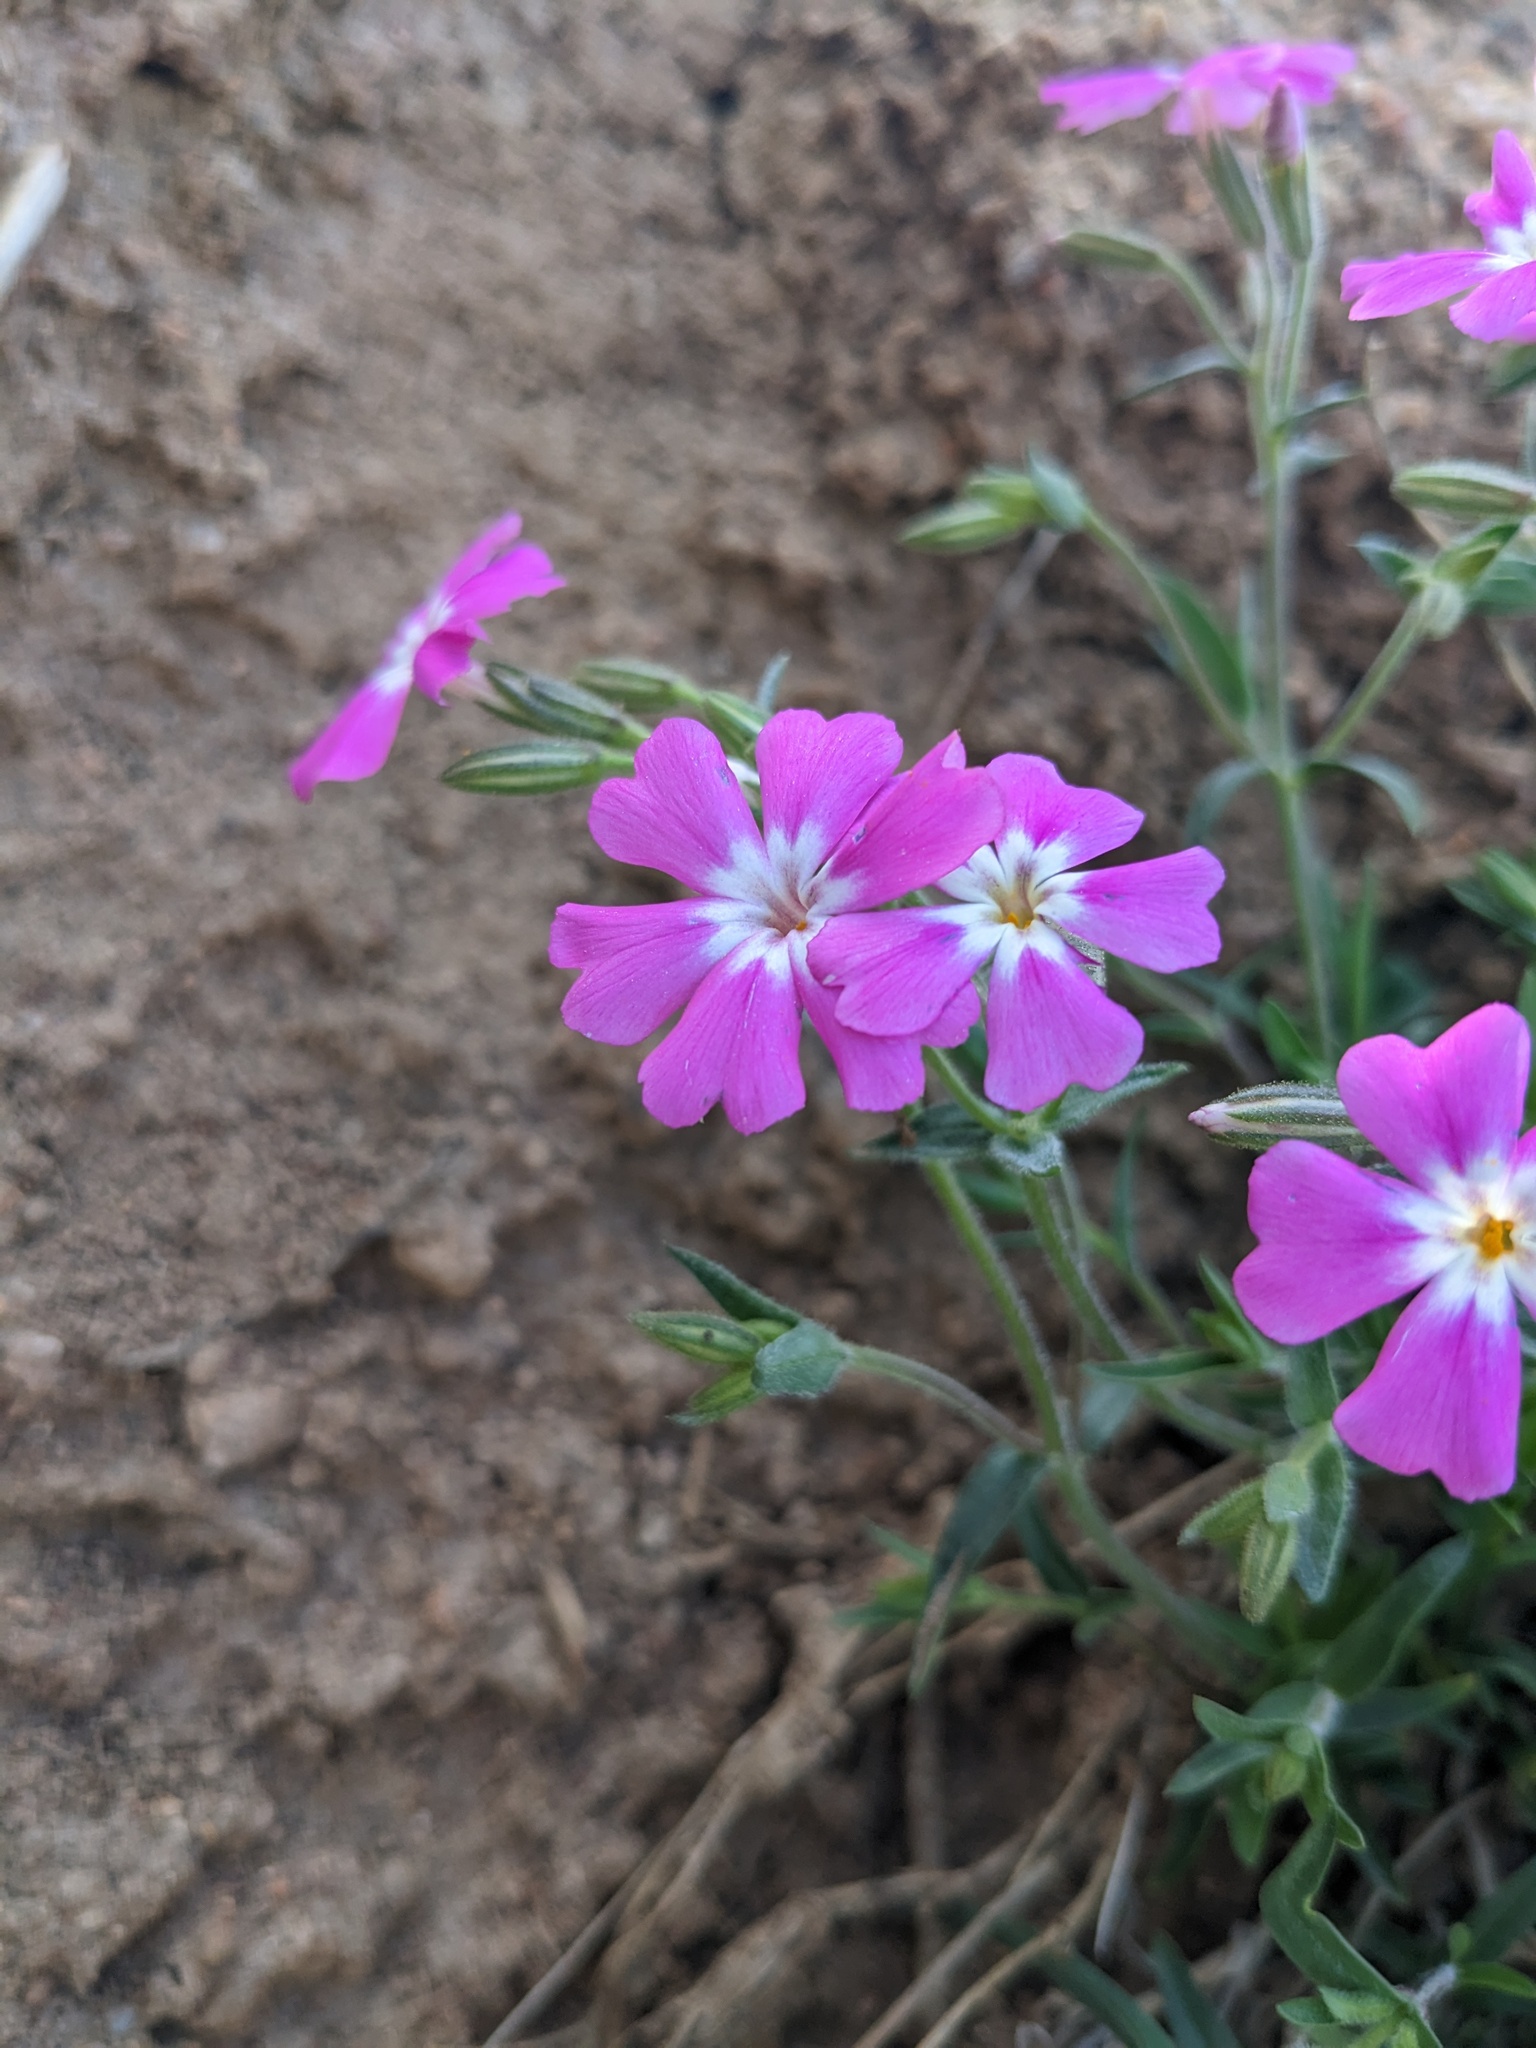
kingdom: Plantae
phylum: Tracheophyta
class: Magnoliopsida
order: Ericales
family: Polemoniaceae
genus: Phlox
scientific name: Phlox speciosa
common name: Bush phlox
